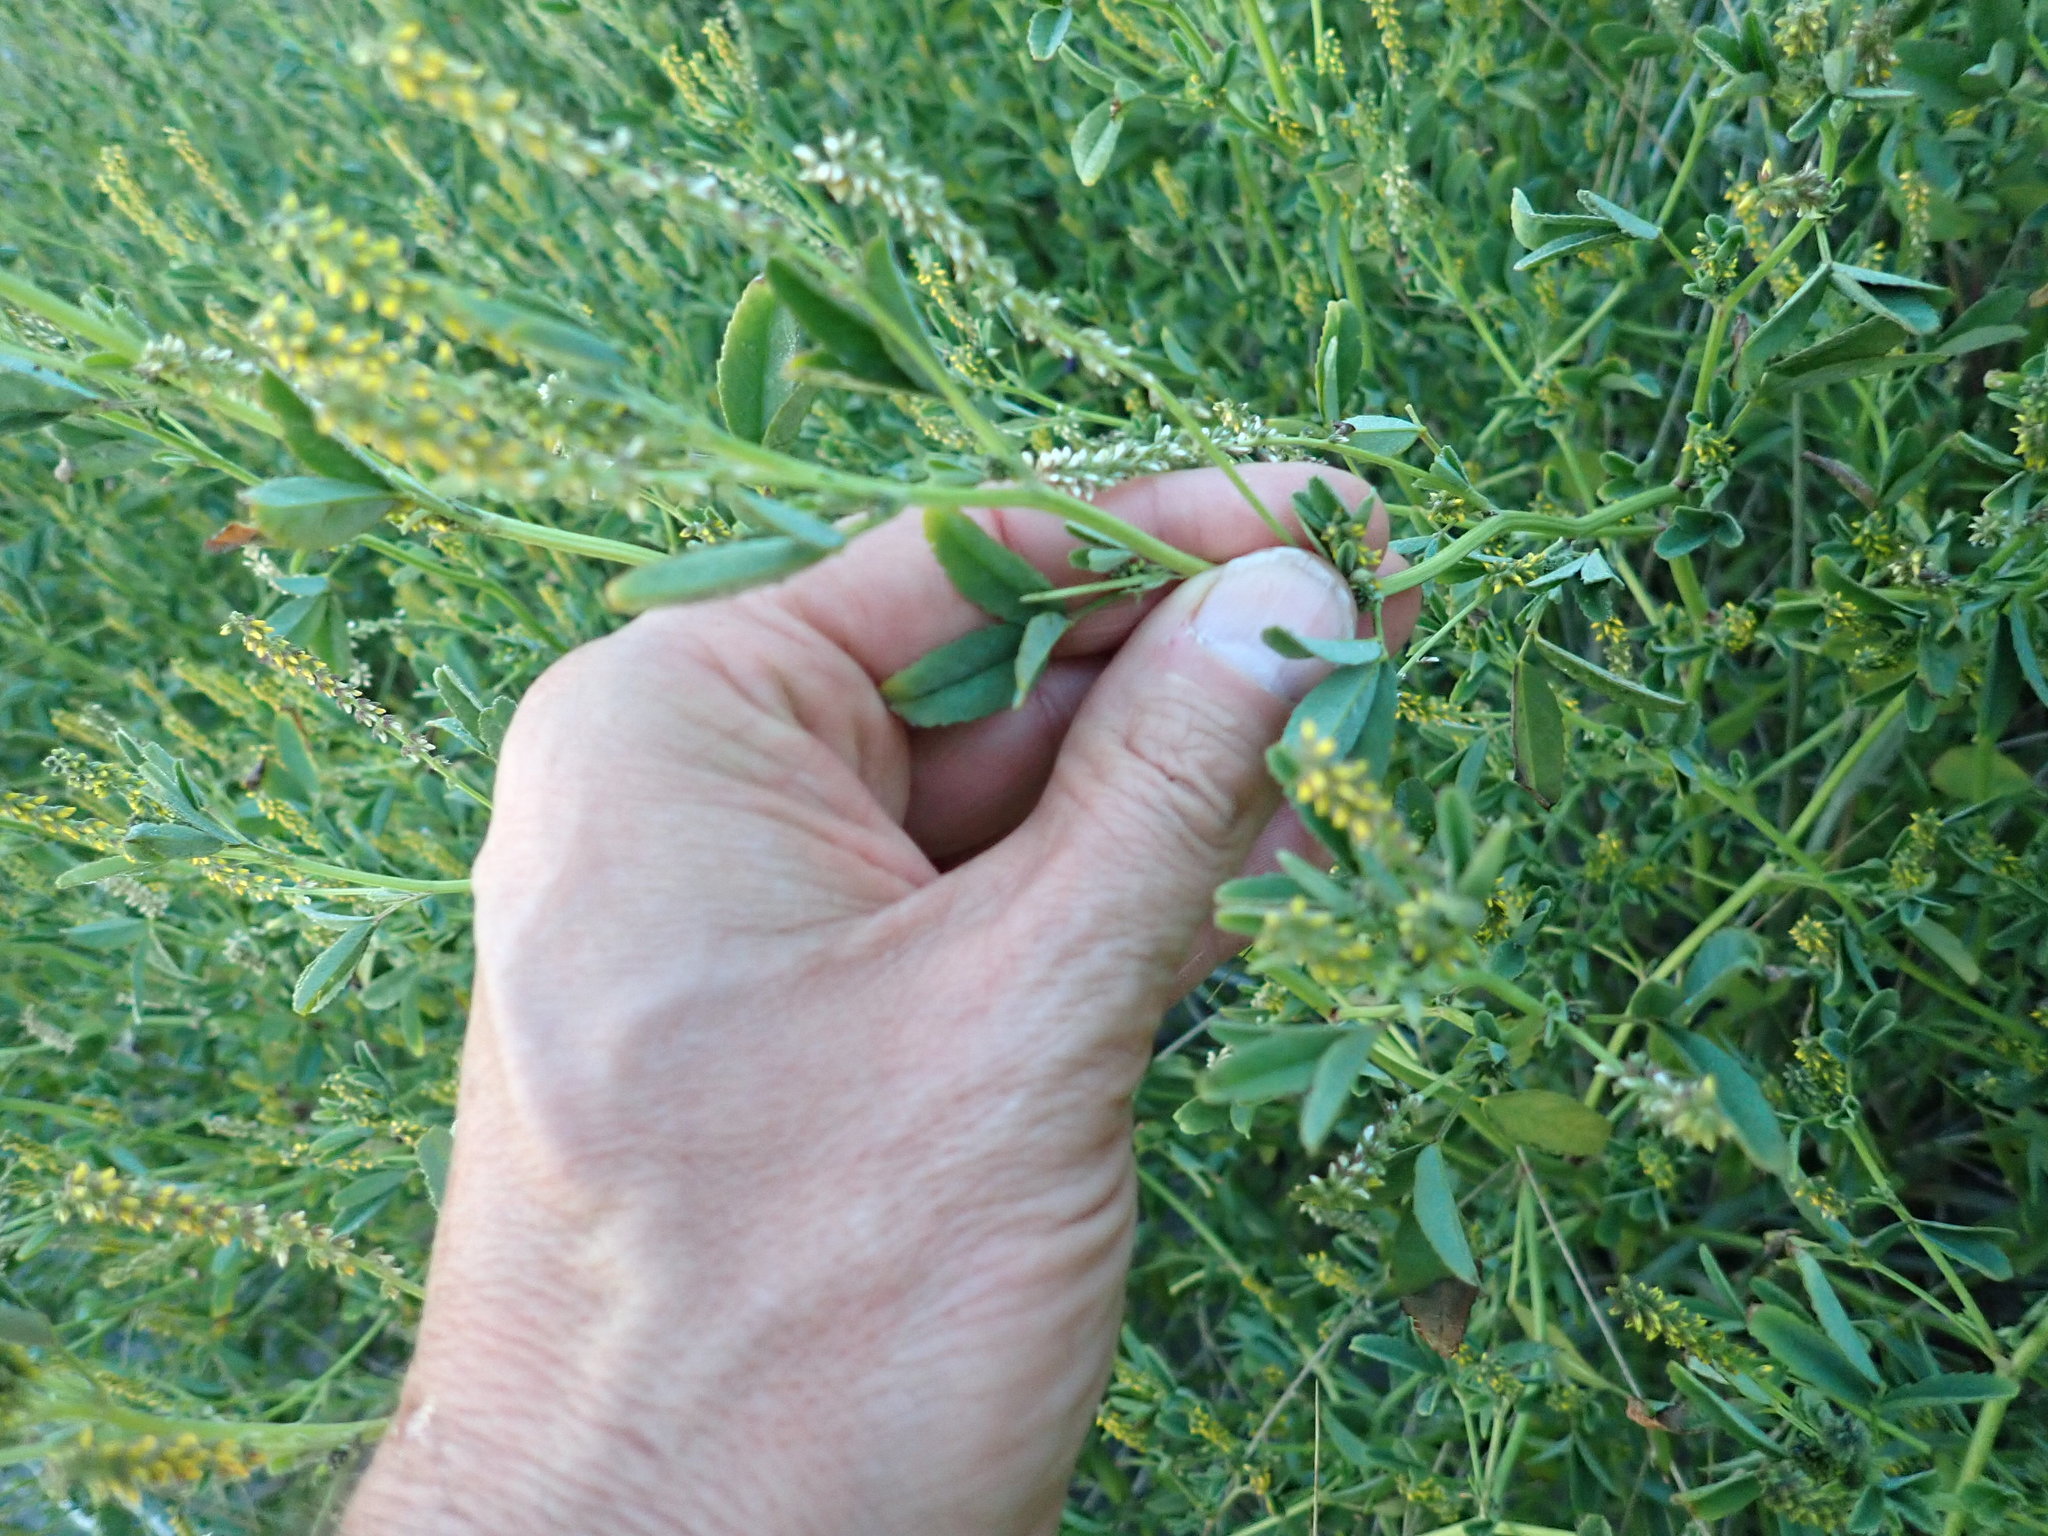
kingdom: Plantae
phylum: Tracheophyta
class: Magnoliopsida
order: Fabales
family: Fabaceae
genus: Melilotus
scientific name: Melilotus indicus
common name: Small melilot
